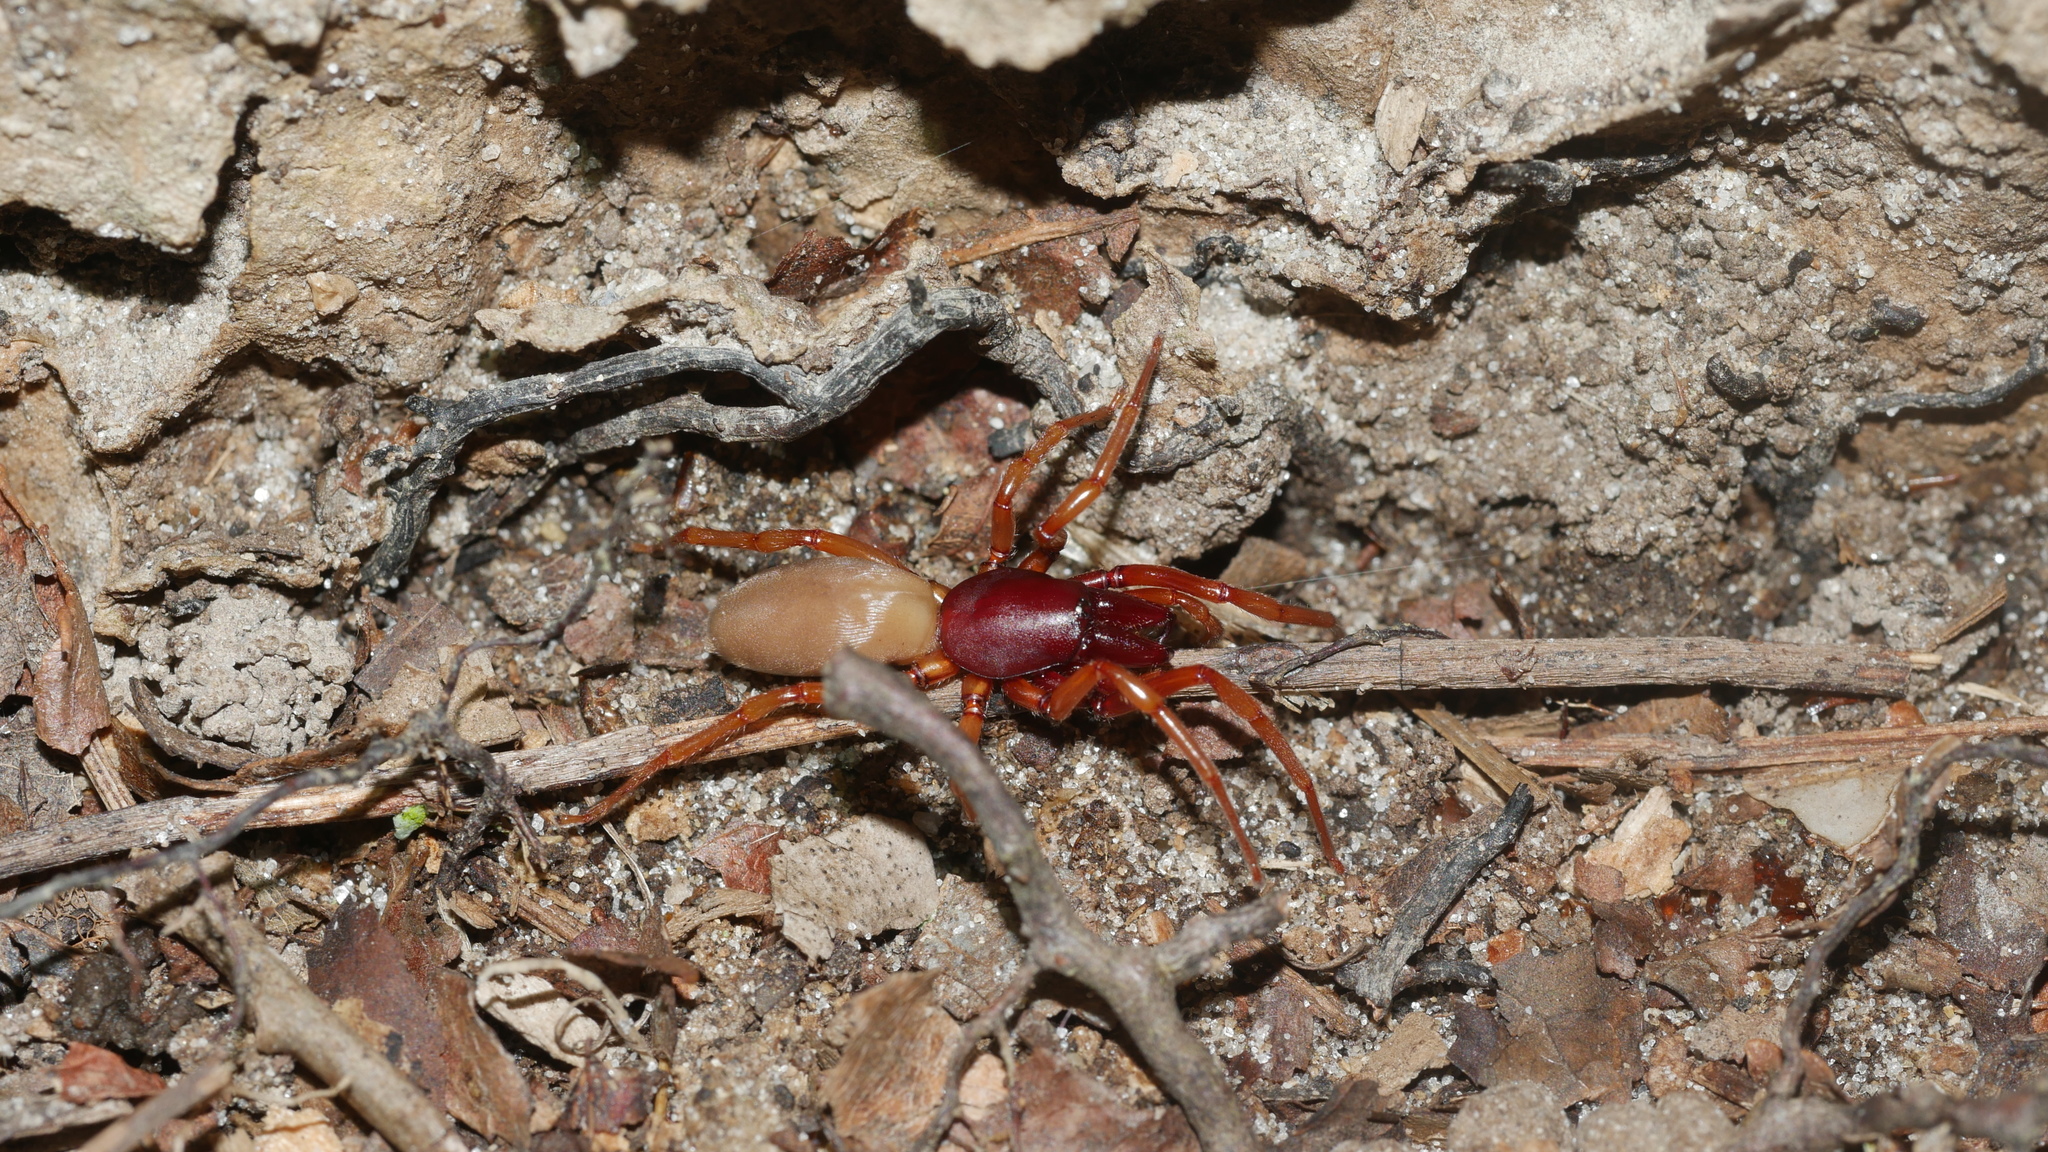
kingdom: Animalia
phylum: Arthropoda
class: Arachnida
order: Araneae
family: Dysderidae
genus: Dysdera
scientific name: Dysdera crocata
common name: Woodlouse spider
